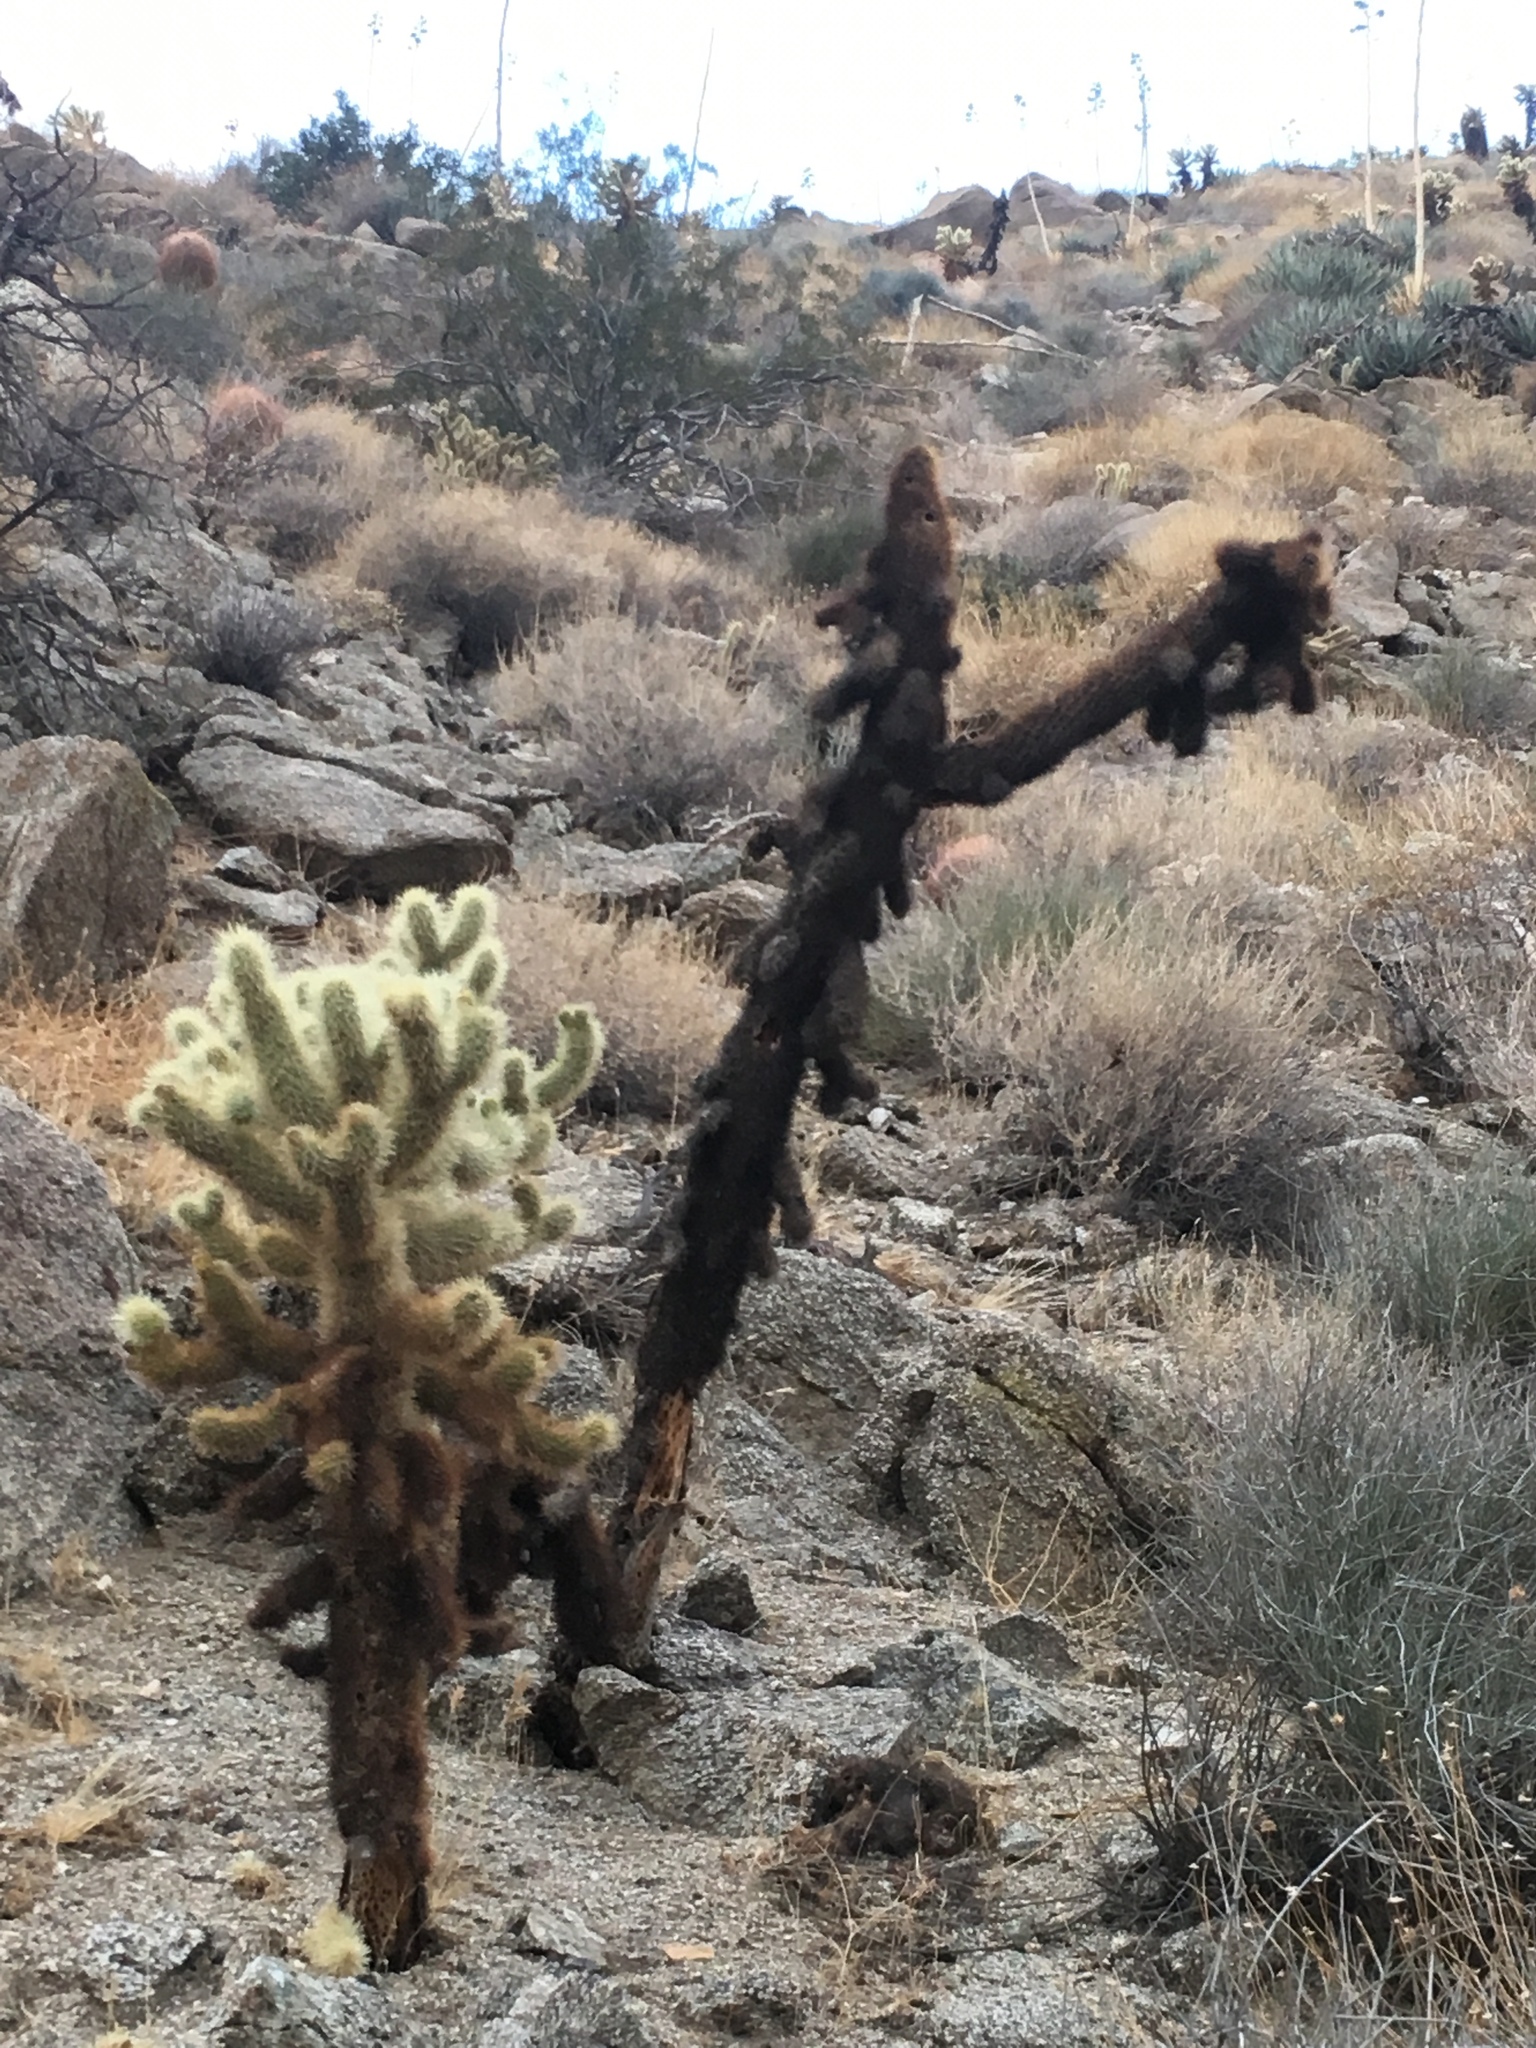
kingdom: Plantae
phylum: Tracheophyta
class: Magnoliopsida
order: Caryophyllales
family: Cactaceae
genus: Cylindropuntia
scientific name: Cylindropuntia fosbergii
